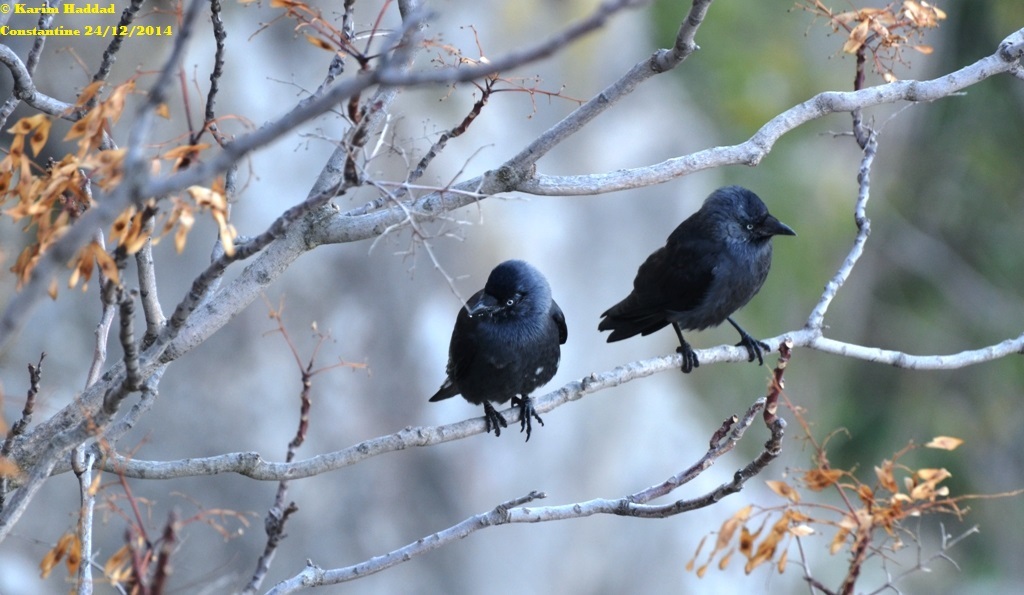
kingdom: Animalia
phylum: Chordata
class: Aves
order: Passeriformes
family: Corvidae
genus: Coloeus
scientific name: Coloeus monedula
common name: Western jackdaw
